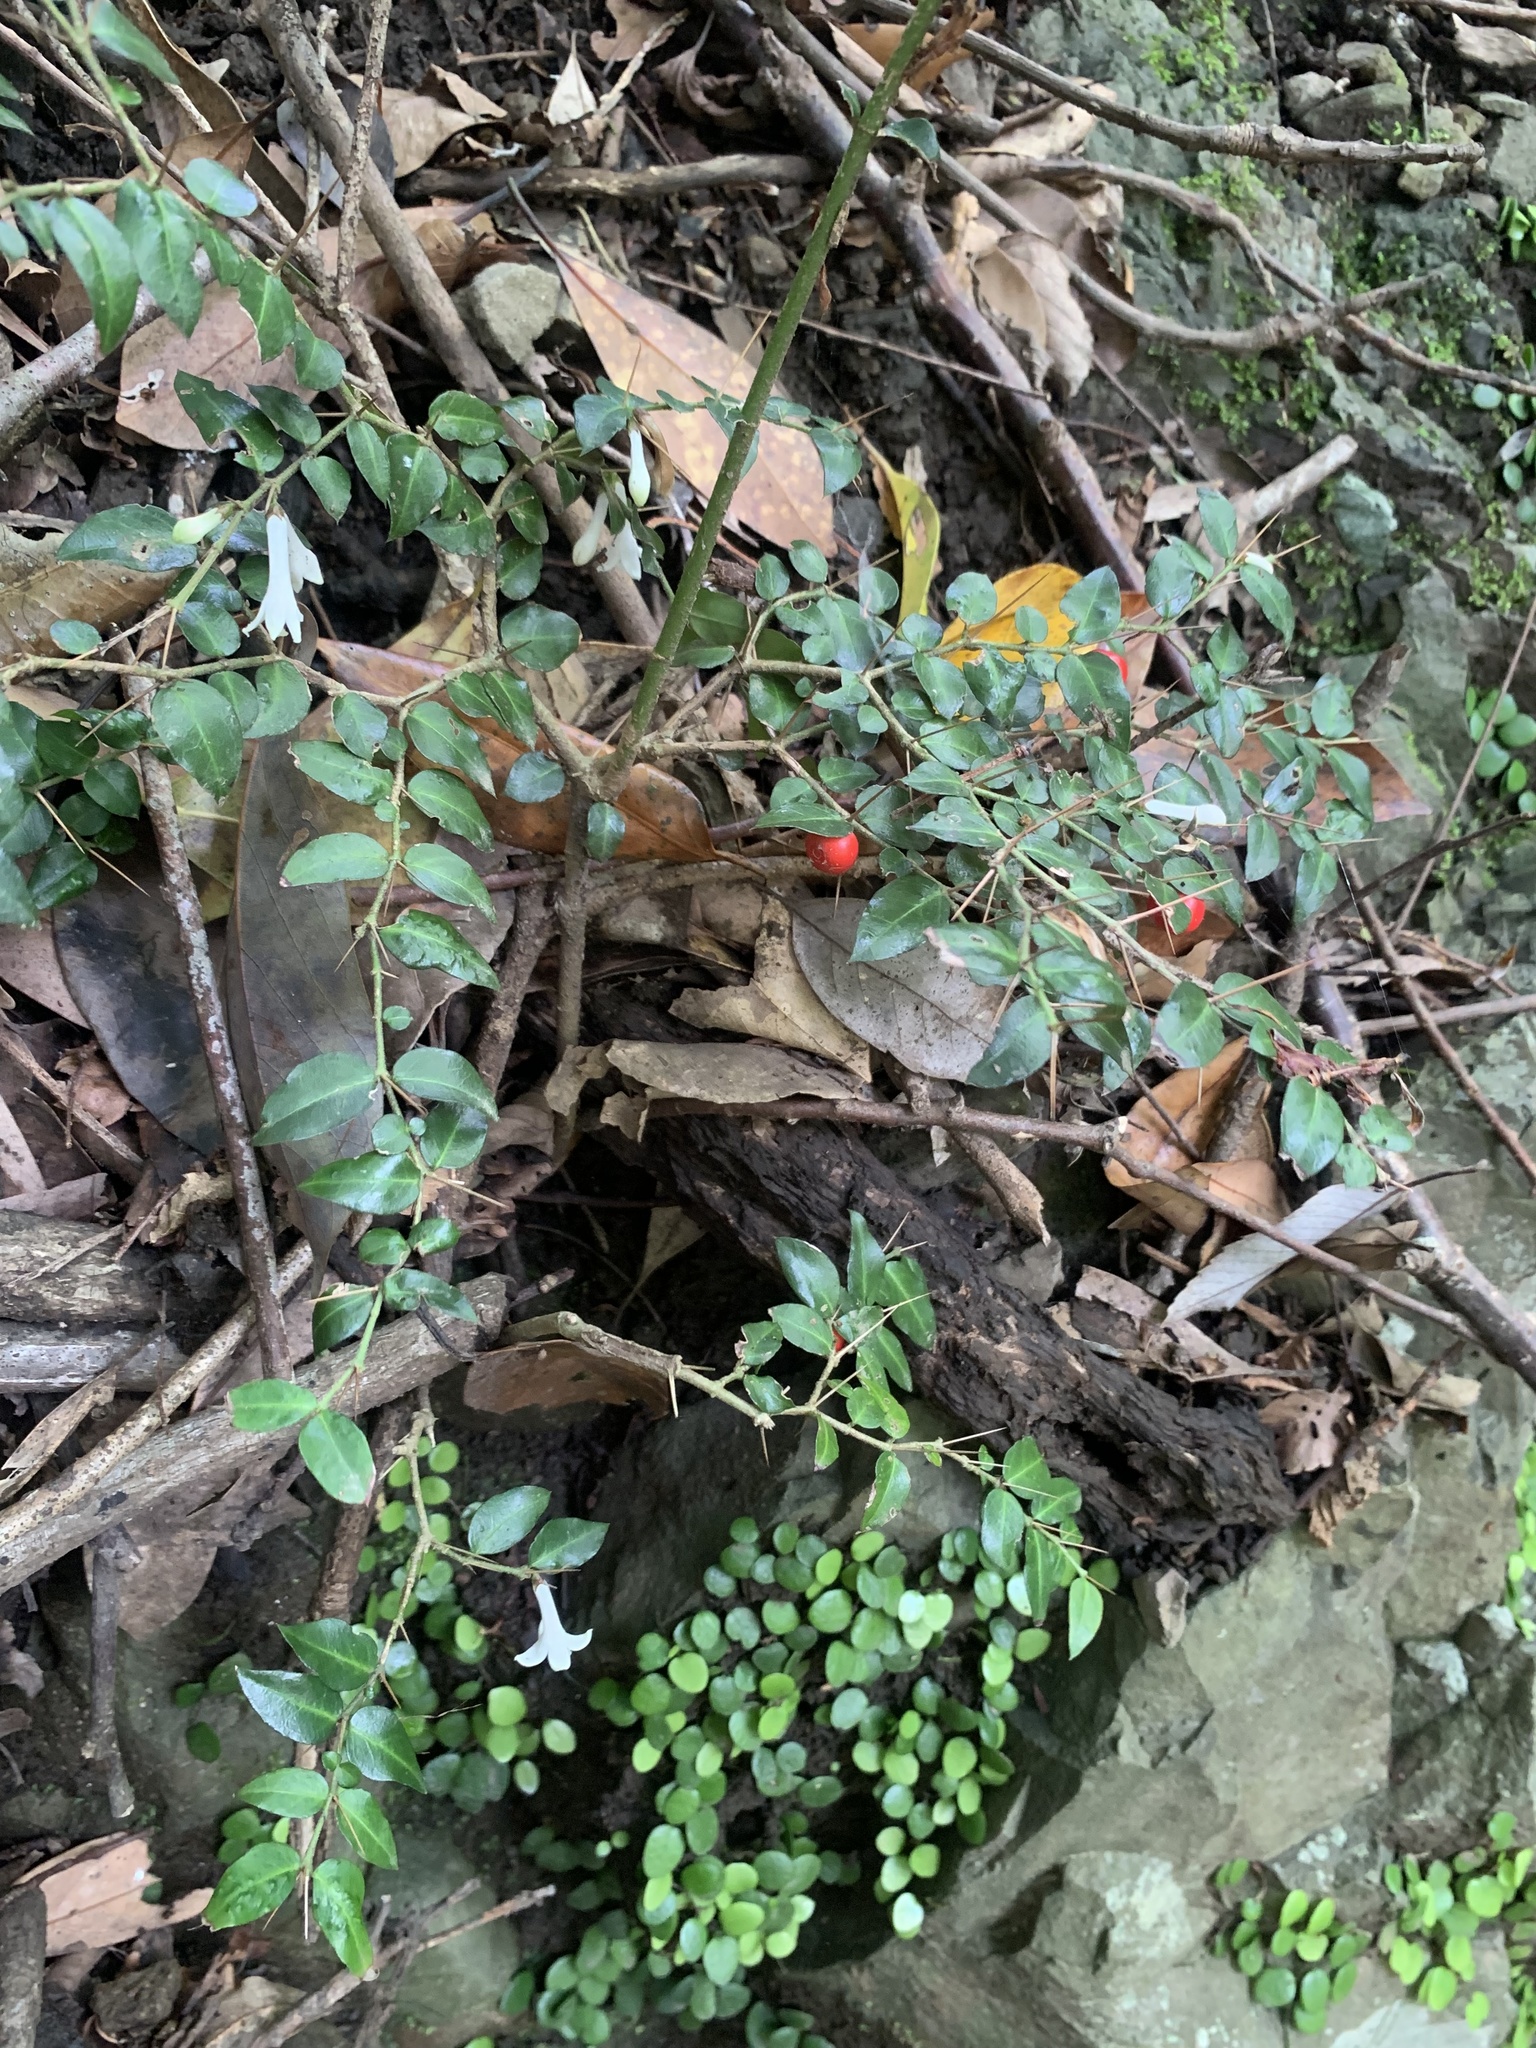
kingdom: Plantae
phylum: Tracheophyta
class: Magnoliopsida
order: Gentianales
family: Rubiaceae
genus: Damnacanthus
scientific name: Damnacanthus indicus
